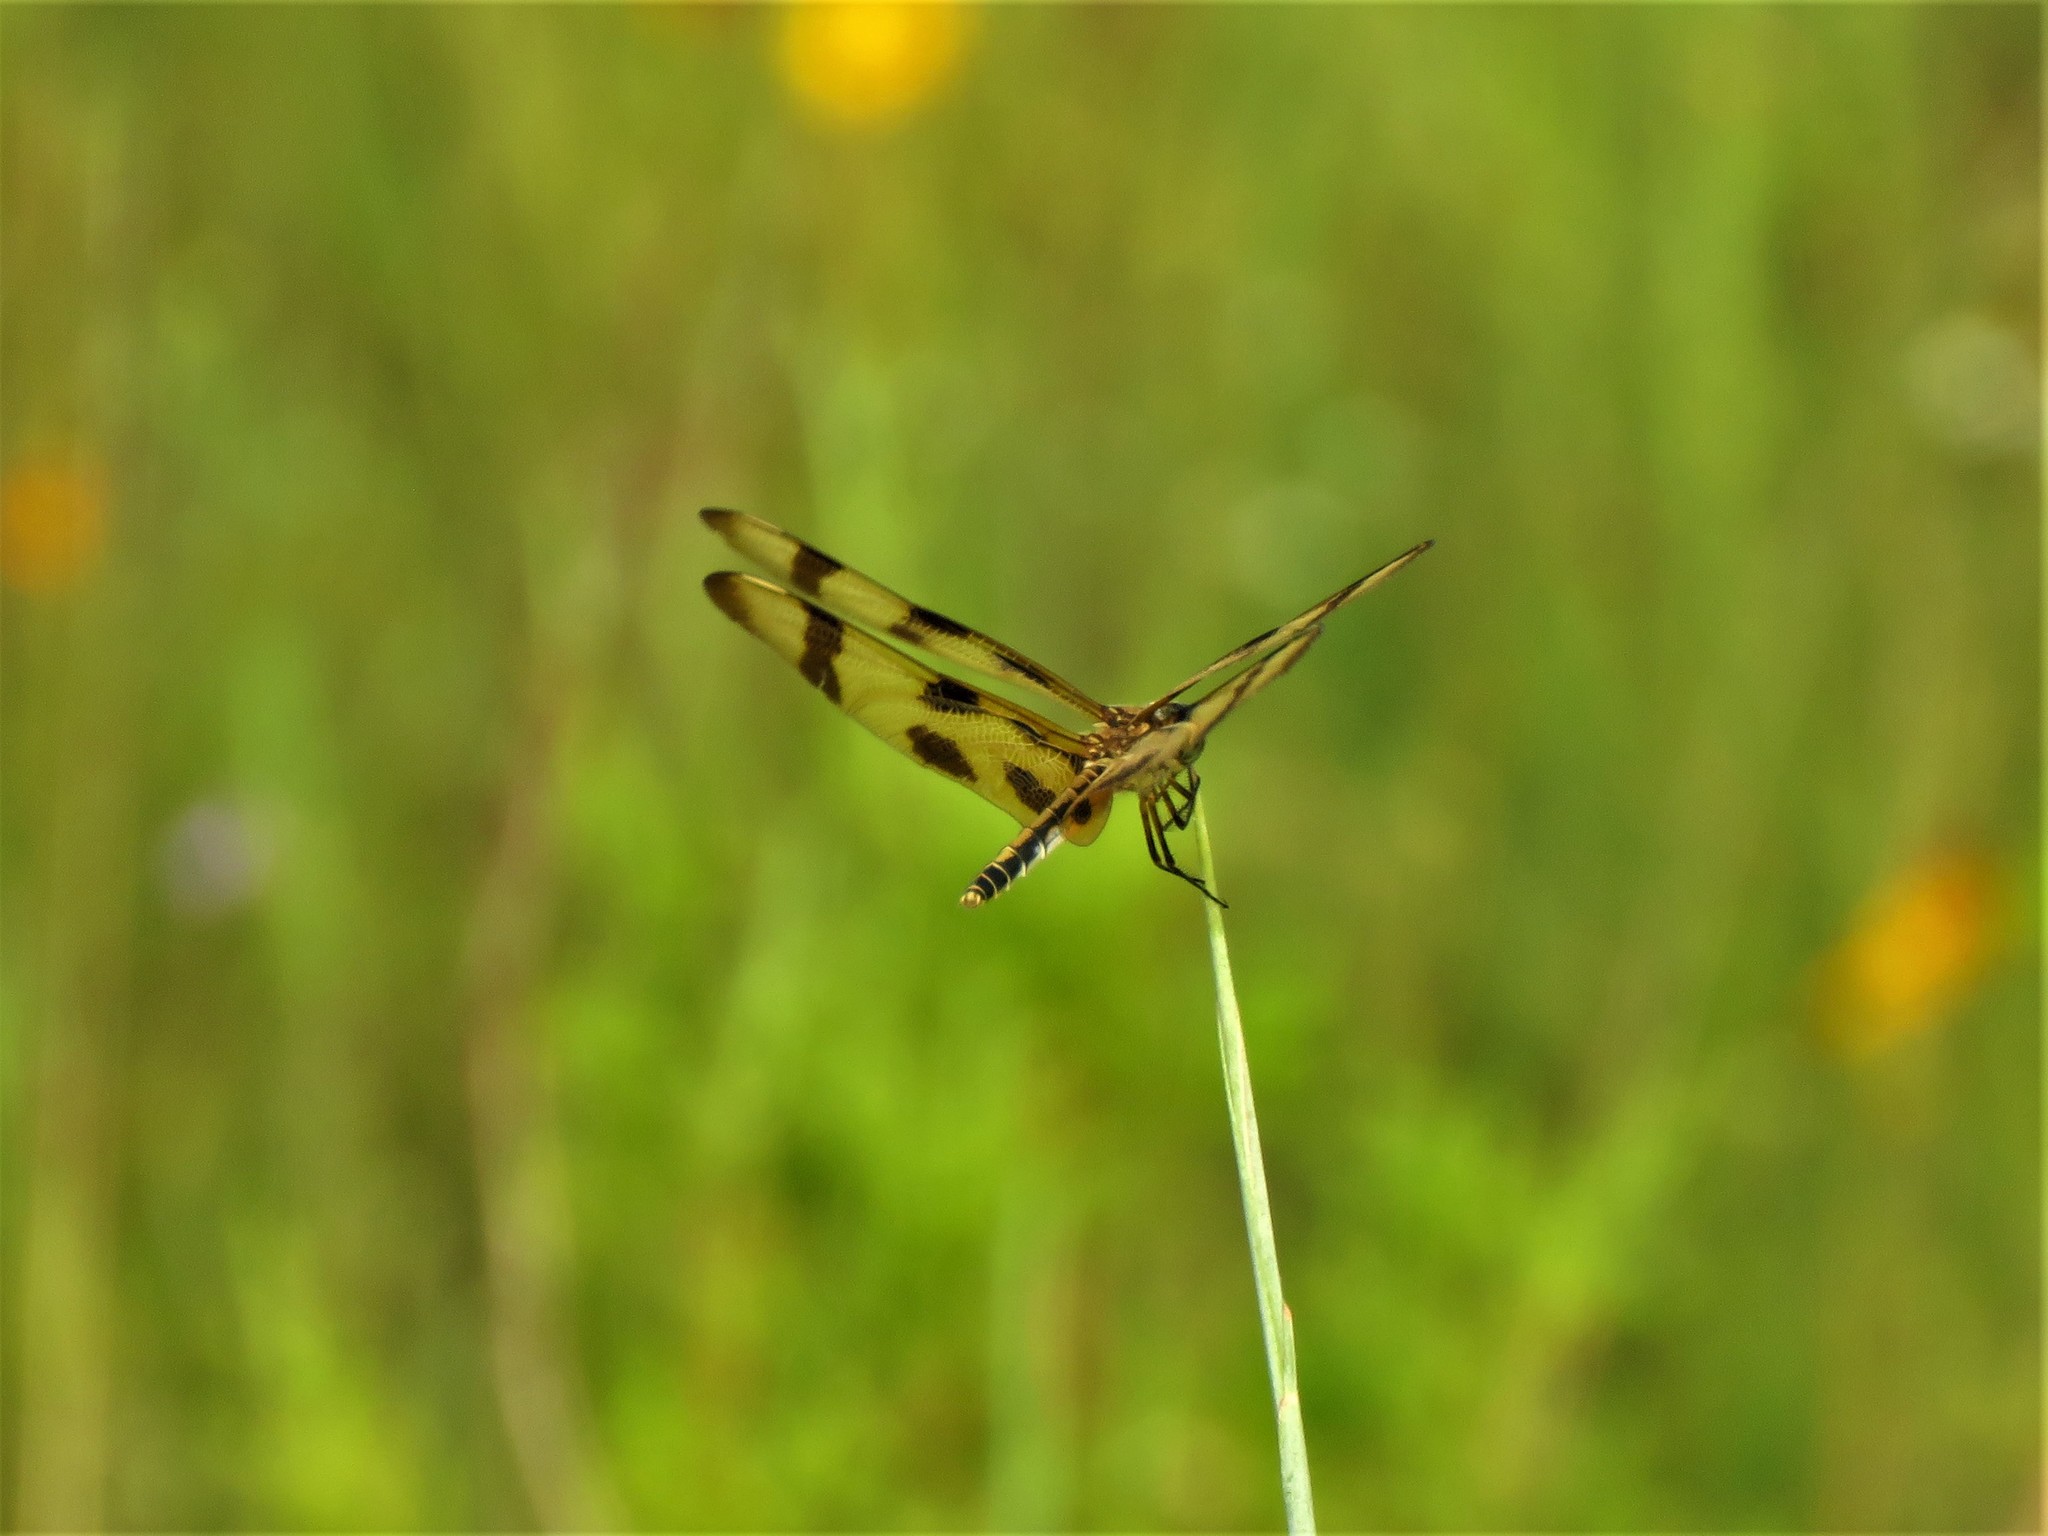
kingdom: Animalia
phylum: Arthropoda
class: Insecta
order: Odonata
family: Libellulidae
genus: Celithemis
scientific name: Celithemis eponina
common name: Halloween pennant
